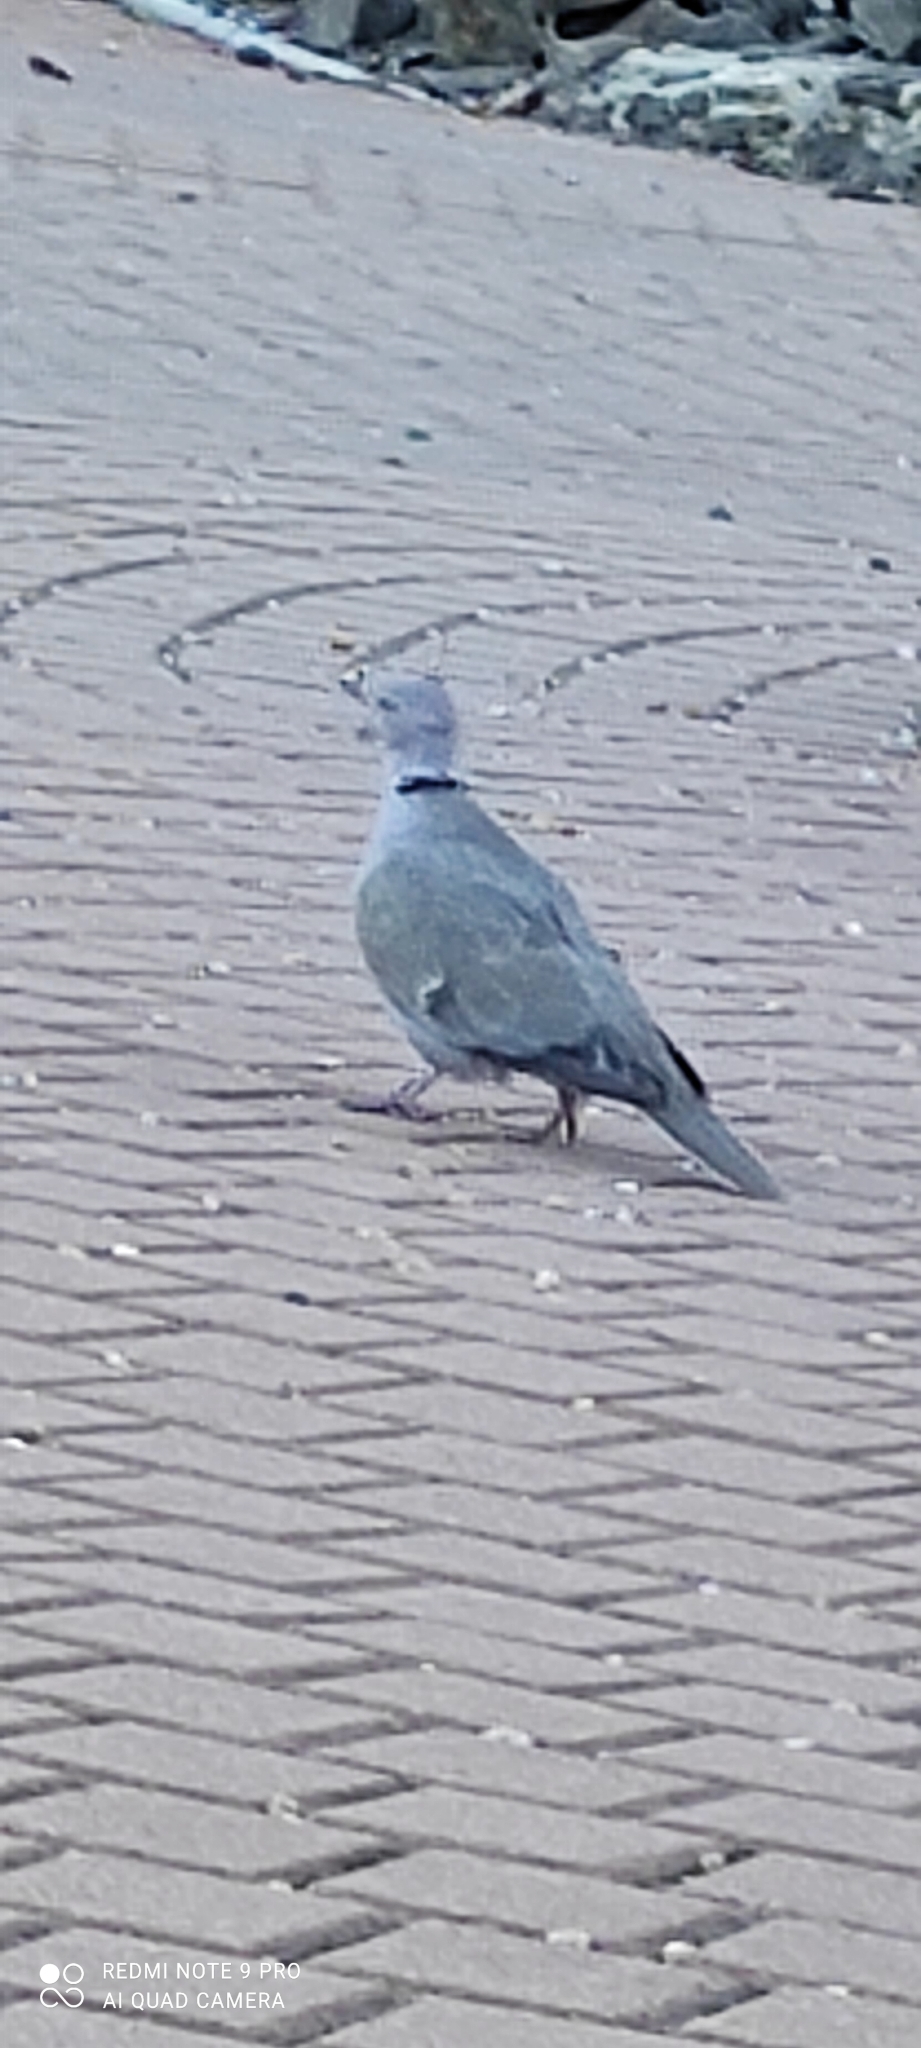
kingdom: Animalia
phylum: Chordata
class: Aves
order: Columbiformes
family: Columbidae
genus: Streptopelia
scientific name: Streptopelia decaocto
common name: Eurasian collared dove
